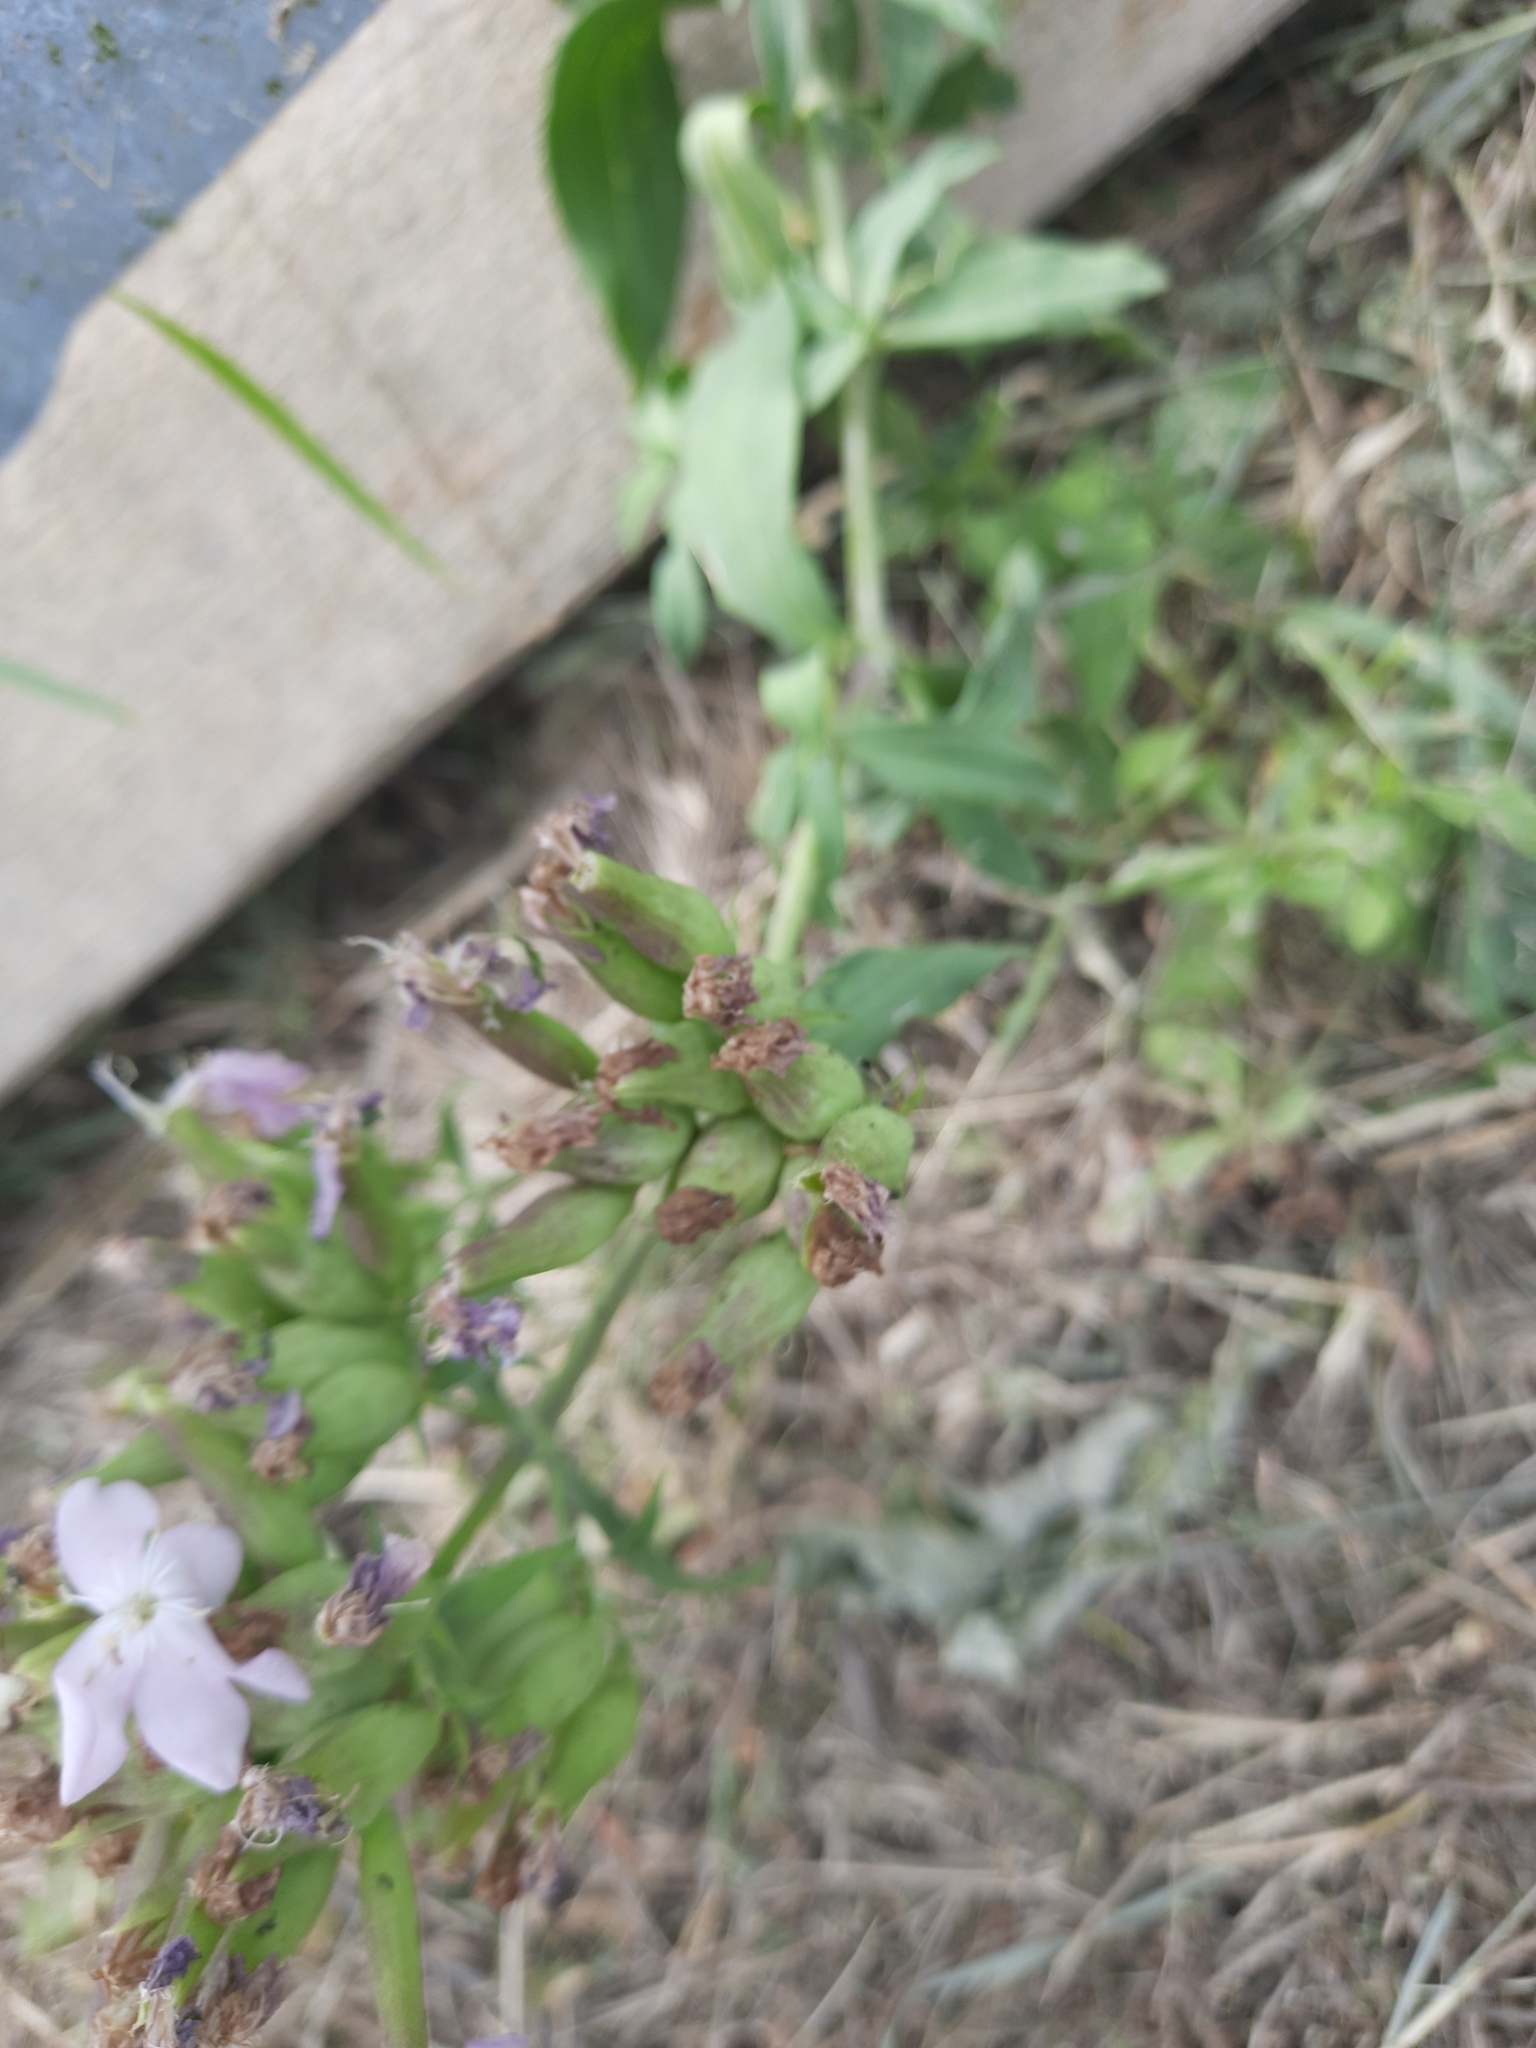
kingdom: Plantae
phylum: Tracheophyta
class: Magnoliopsida
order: Caryophyllales
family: Caryophyllaceae
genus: Saponaria
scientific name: Saponaria officinalis
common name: Soapwort
